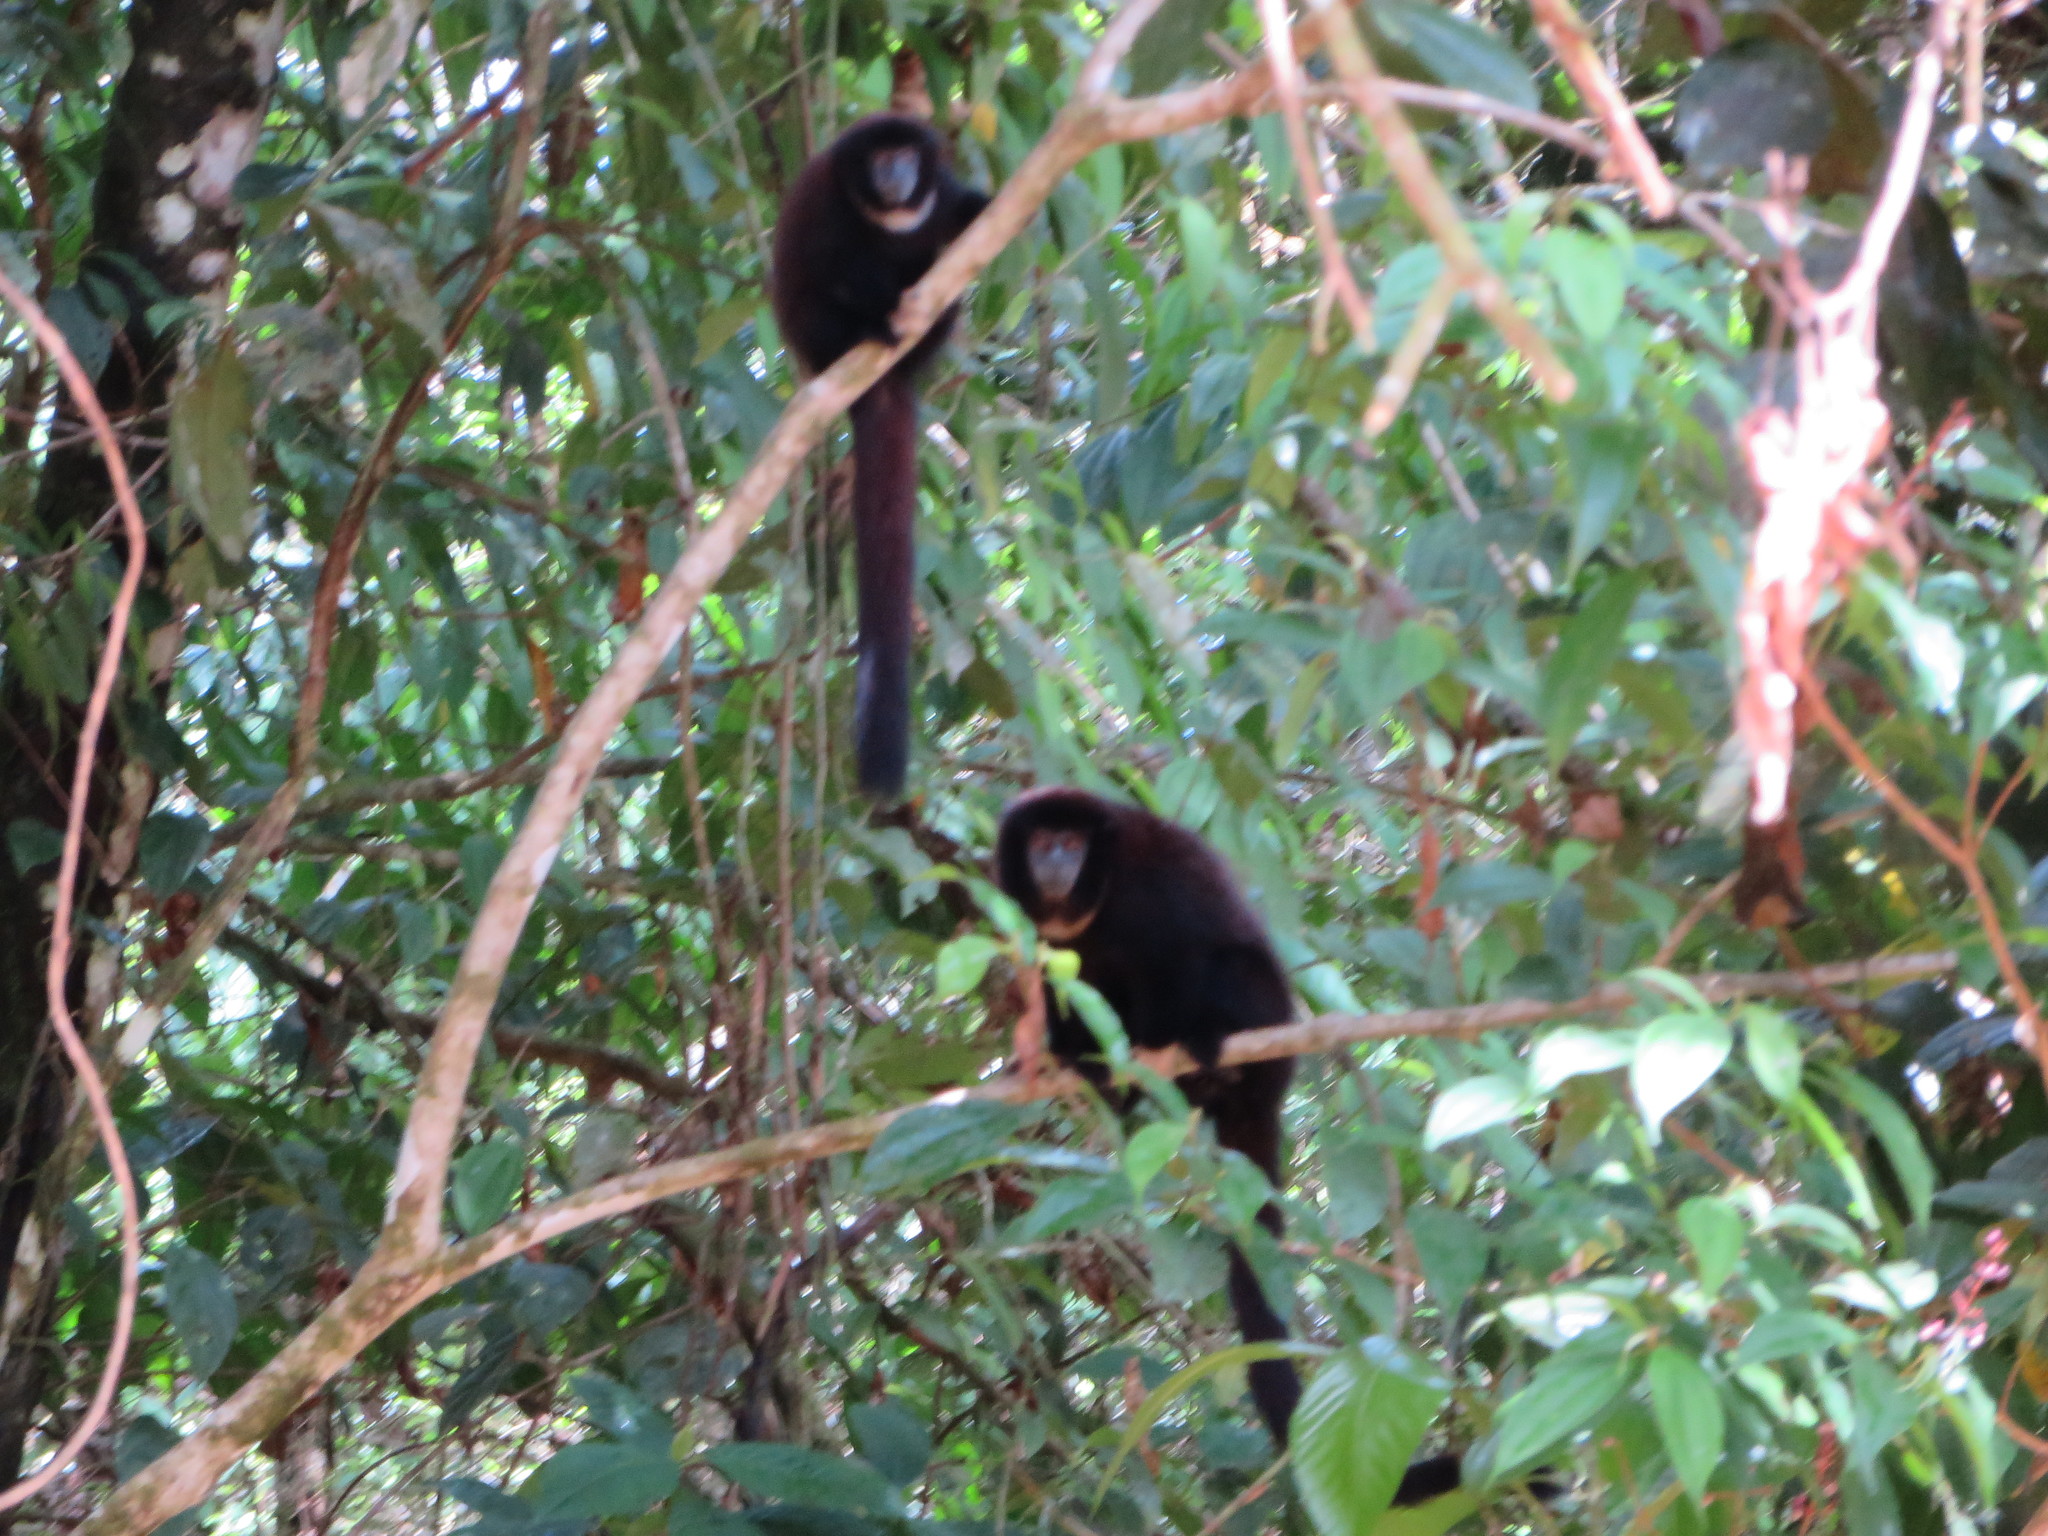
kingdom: Animalia
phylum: Chordata
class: Mammalia
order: Primates
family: Pitheciidae
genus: Cheracebus
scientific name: Cheracebus lucifer
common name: Yellow-handed titi
